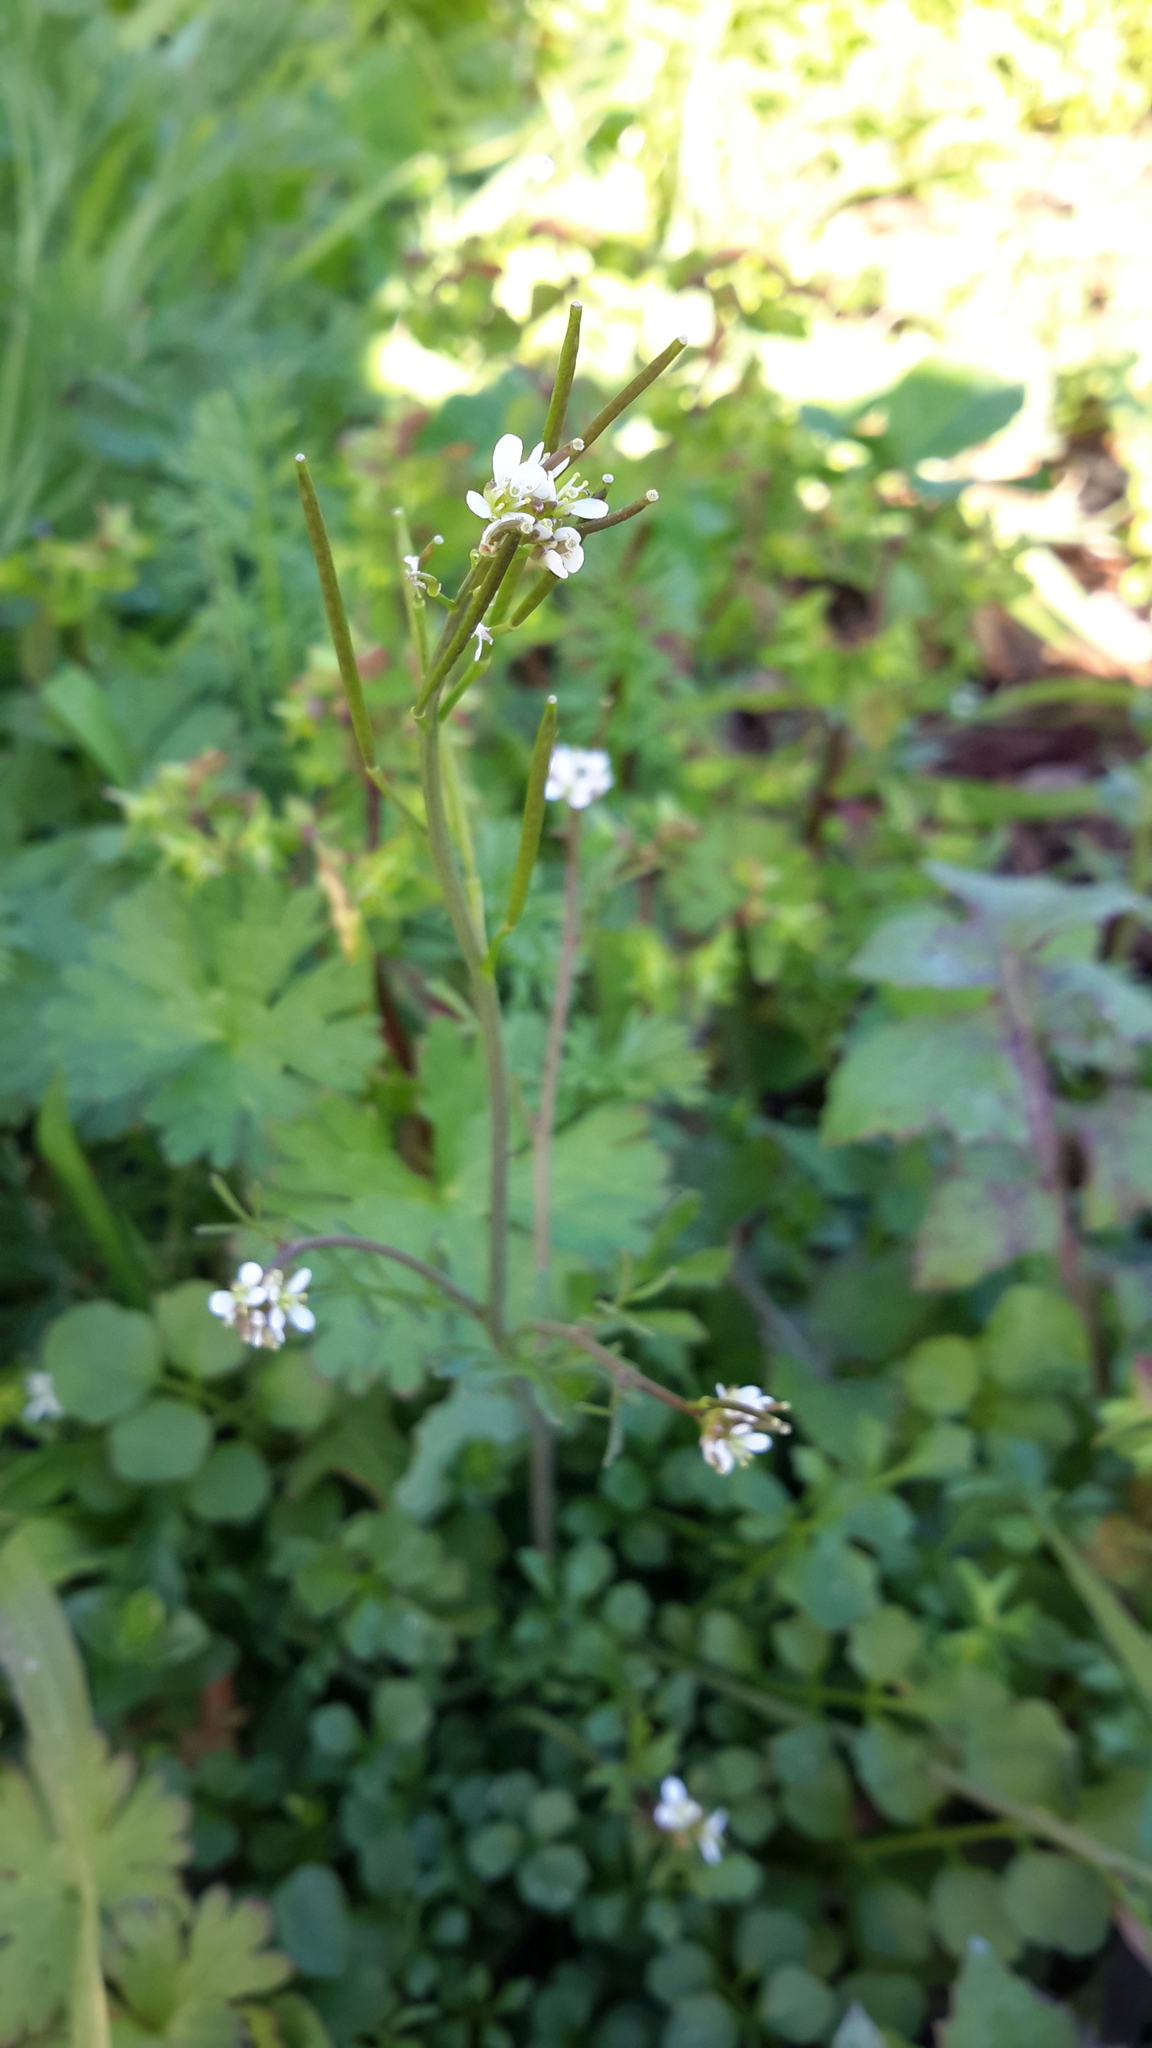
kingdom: Plantae
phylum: Tracheophyta
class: Magnoliopsida
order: Brassicales
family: Brassicaceae
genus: Cardamine
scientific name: Cardamine hirsuta
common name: Hairy bittercress
